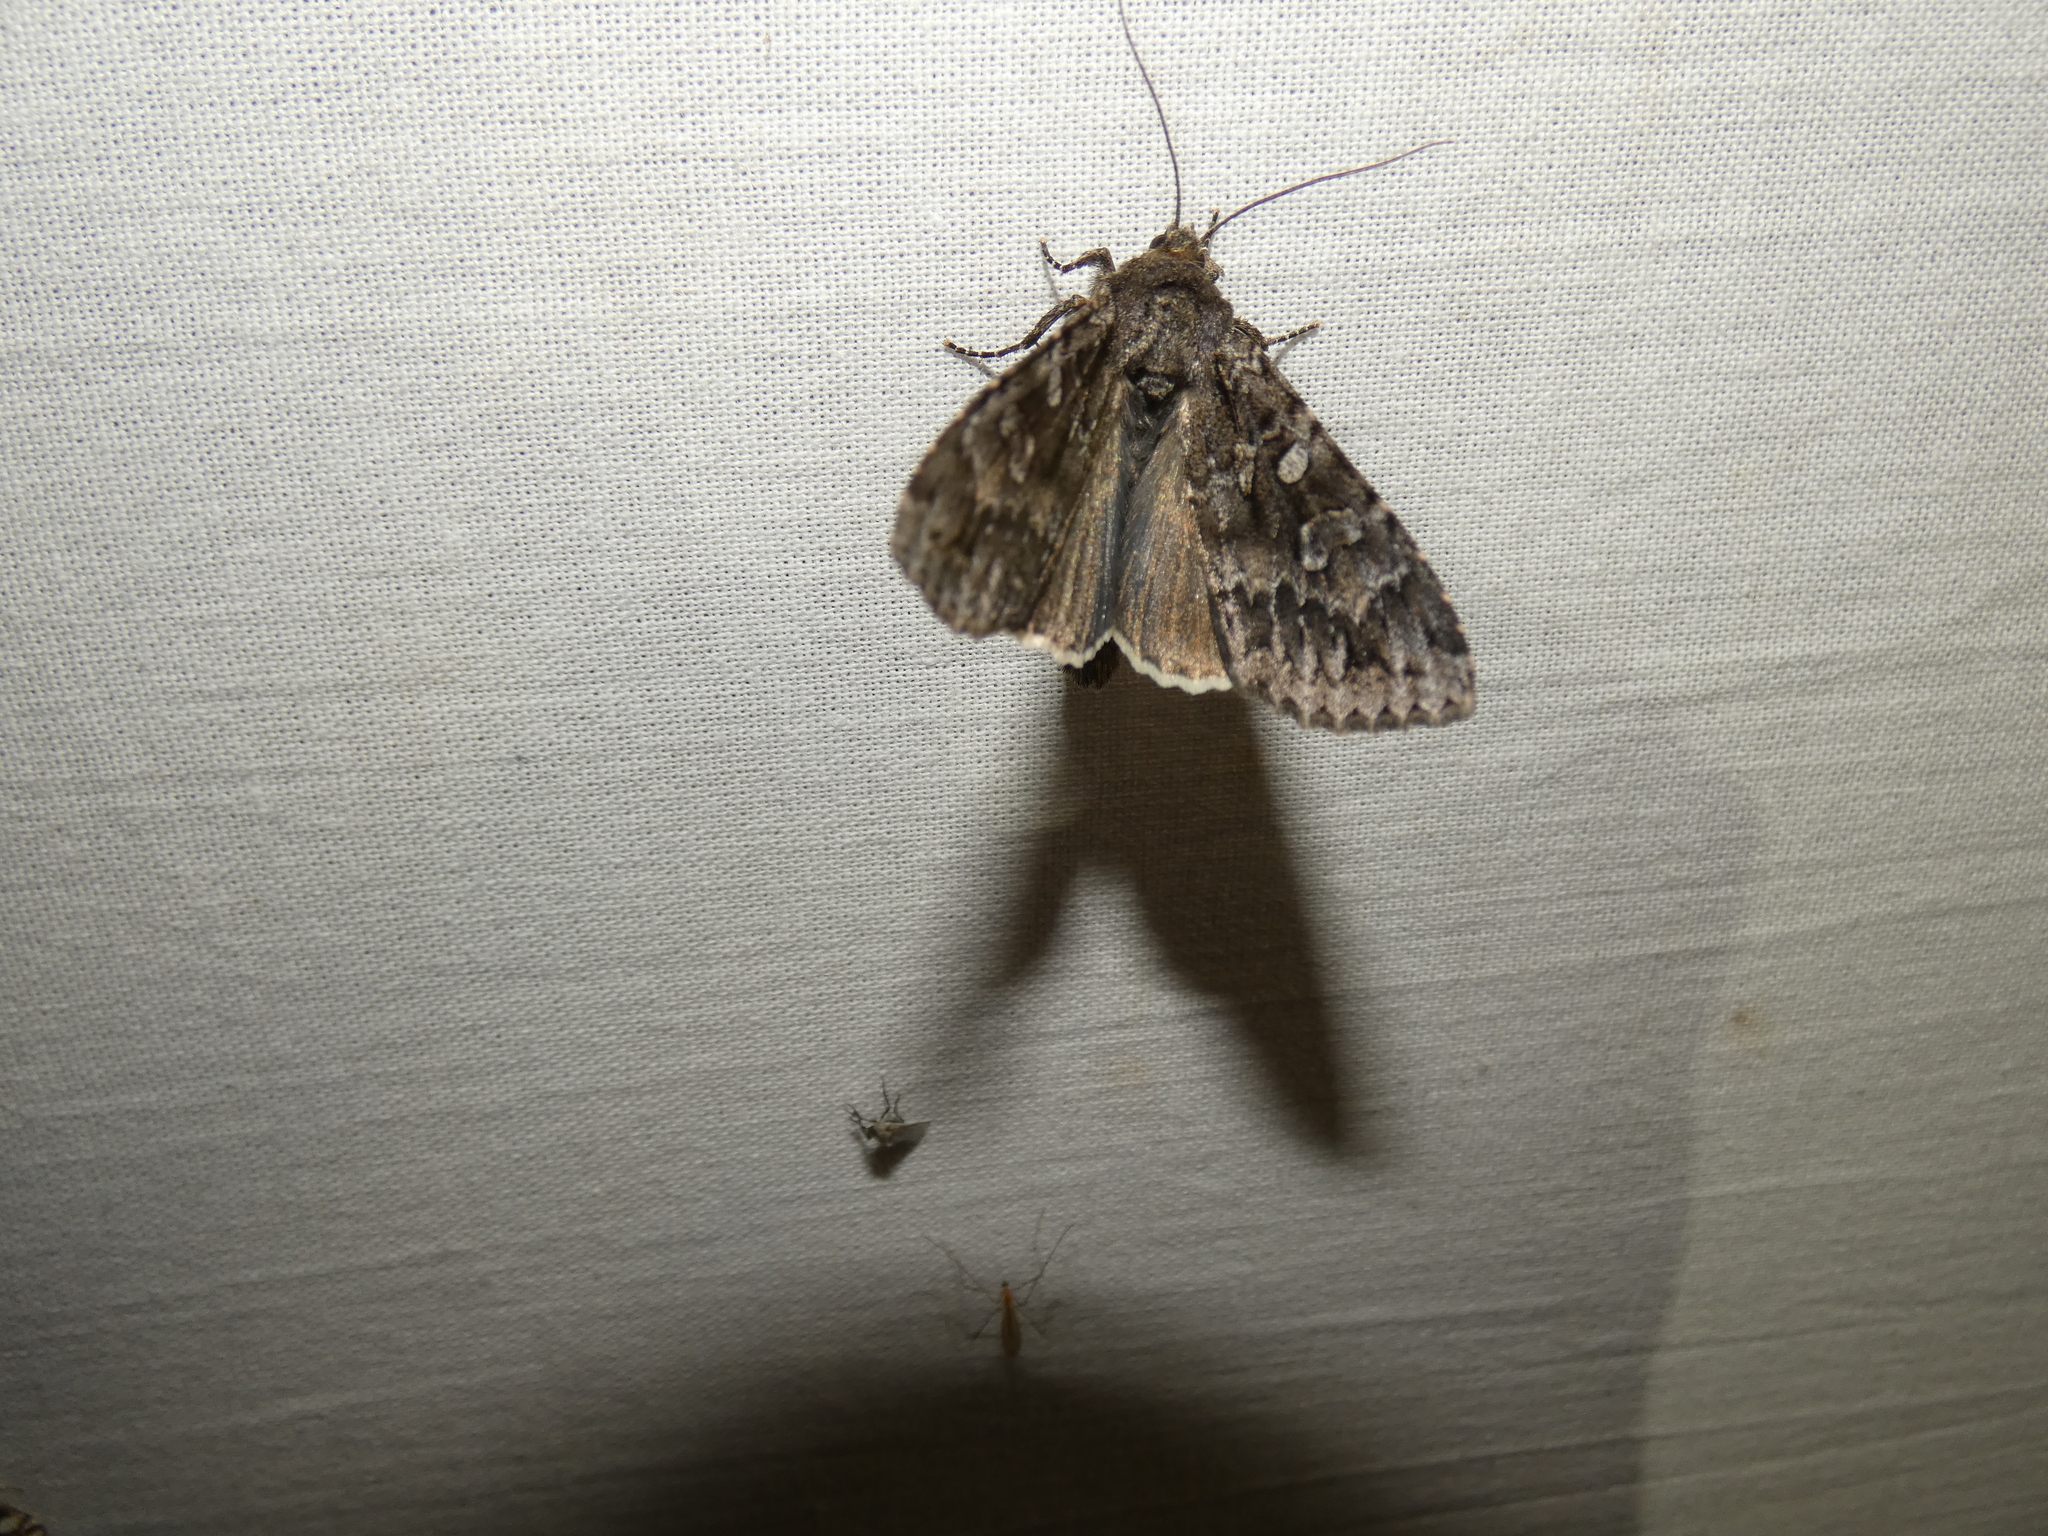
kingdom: Animalia
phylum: Arthropoda
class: Insecta
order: Lepidoptera
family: Noctuidae
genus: Eurois
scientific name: Eurois occulta
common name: Great brocade
